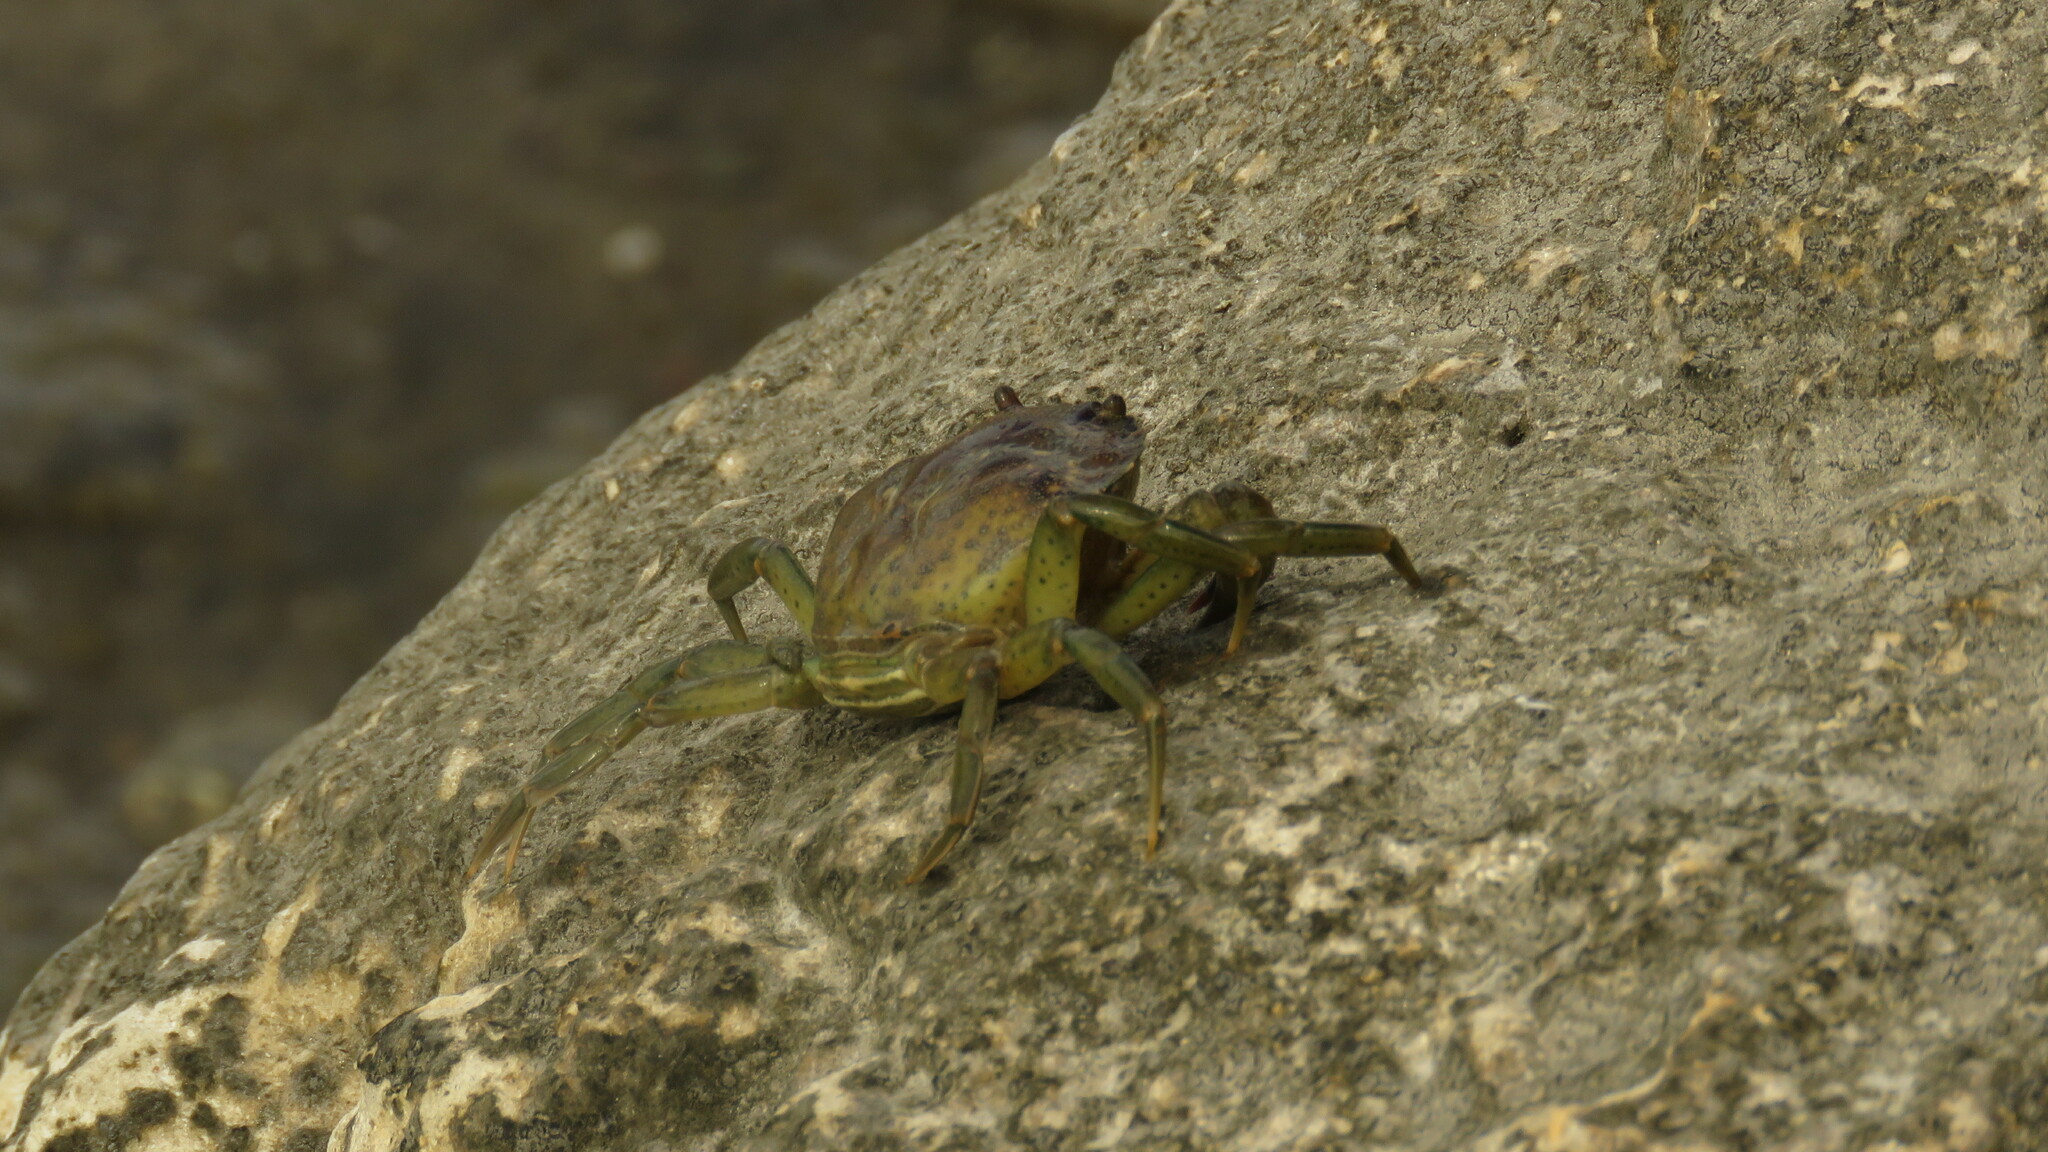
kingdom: Animalia
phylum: Arthropoda
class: Malacostraca
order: Decapoda
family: Carcinidae
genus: Carcinus
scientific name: Carcinus maenas
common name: European green crab
